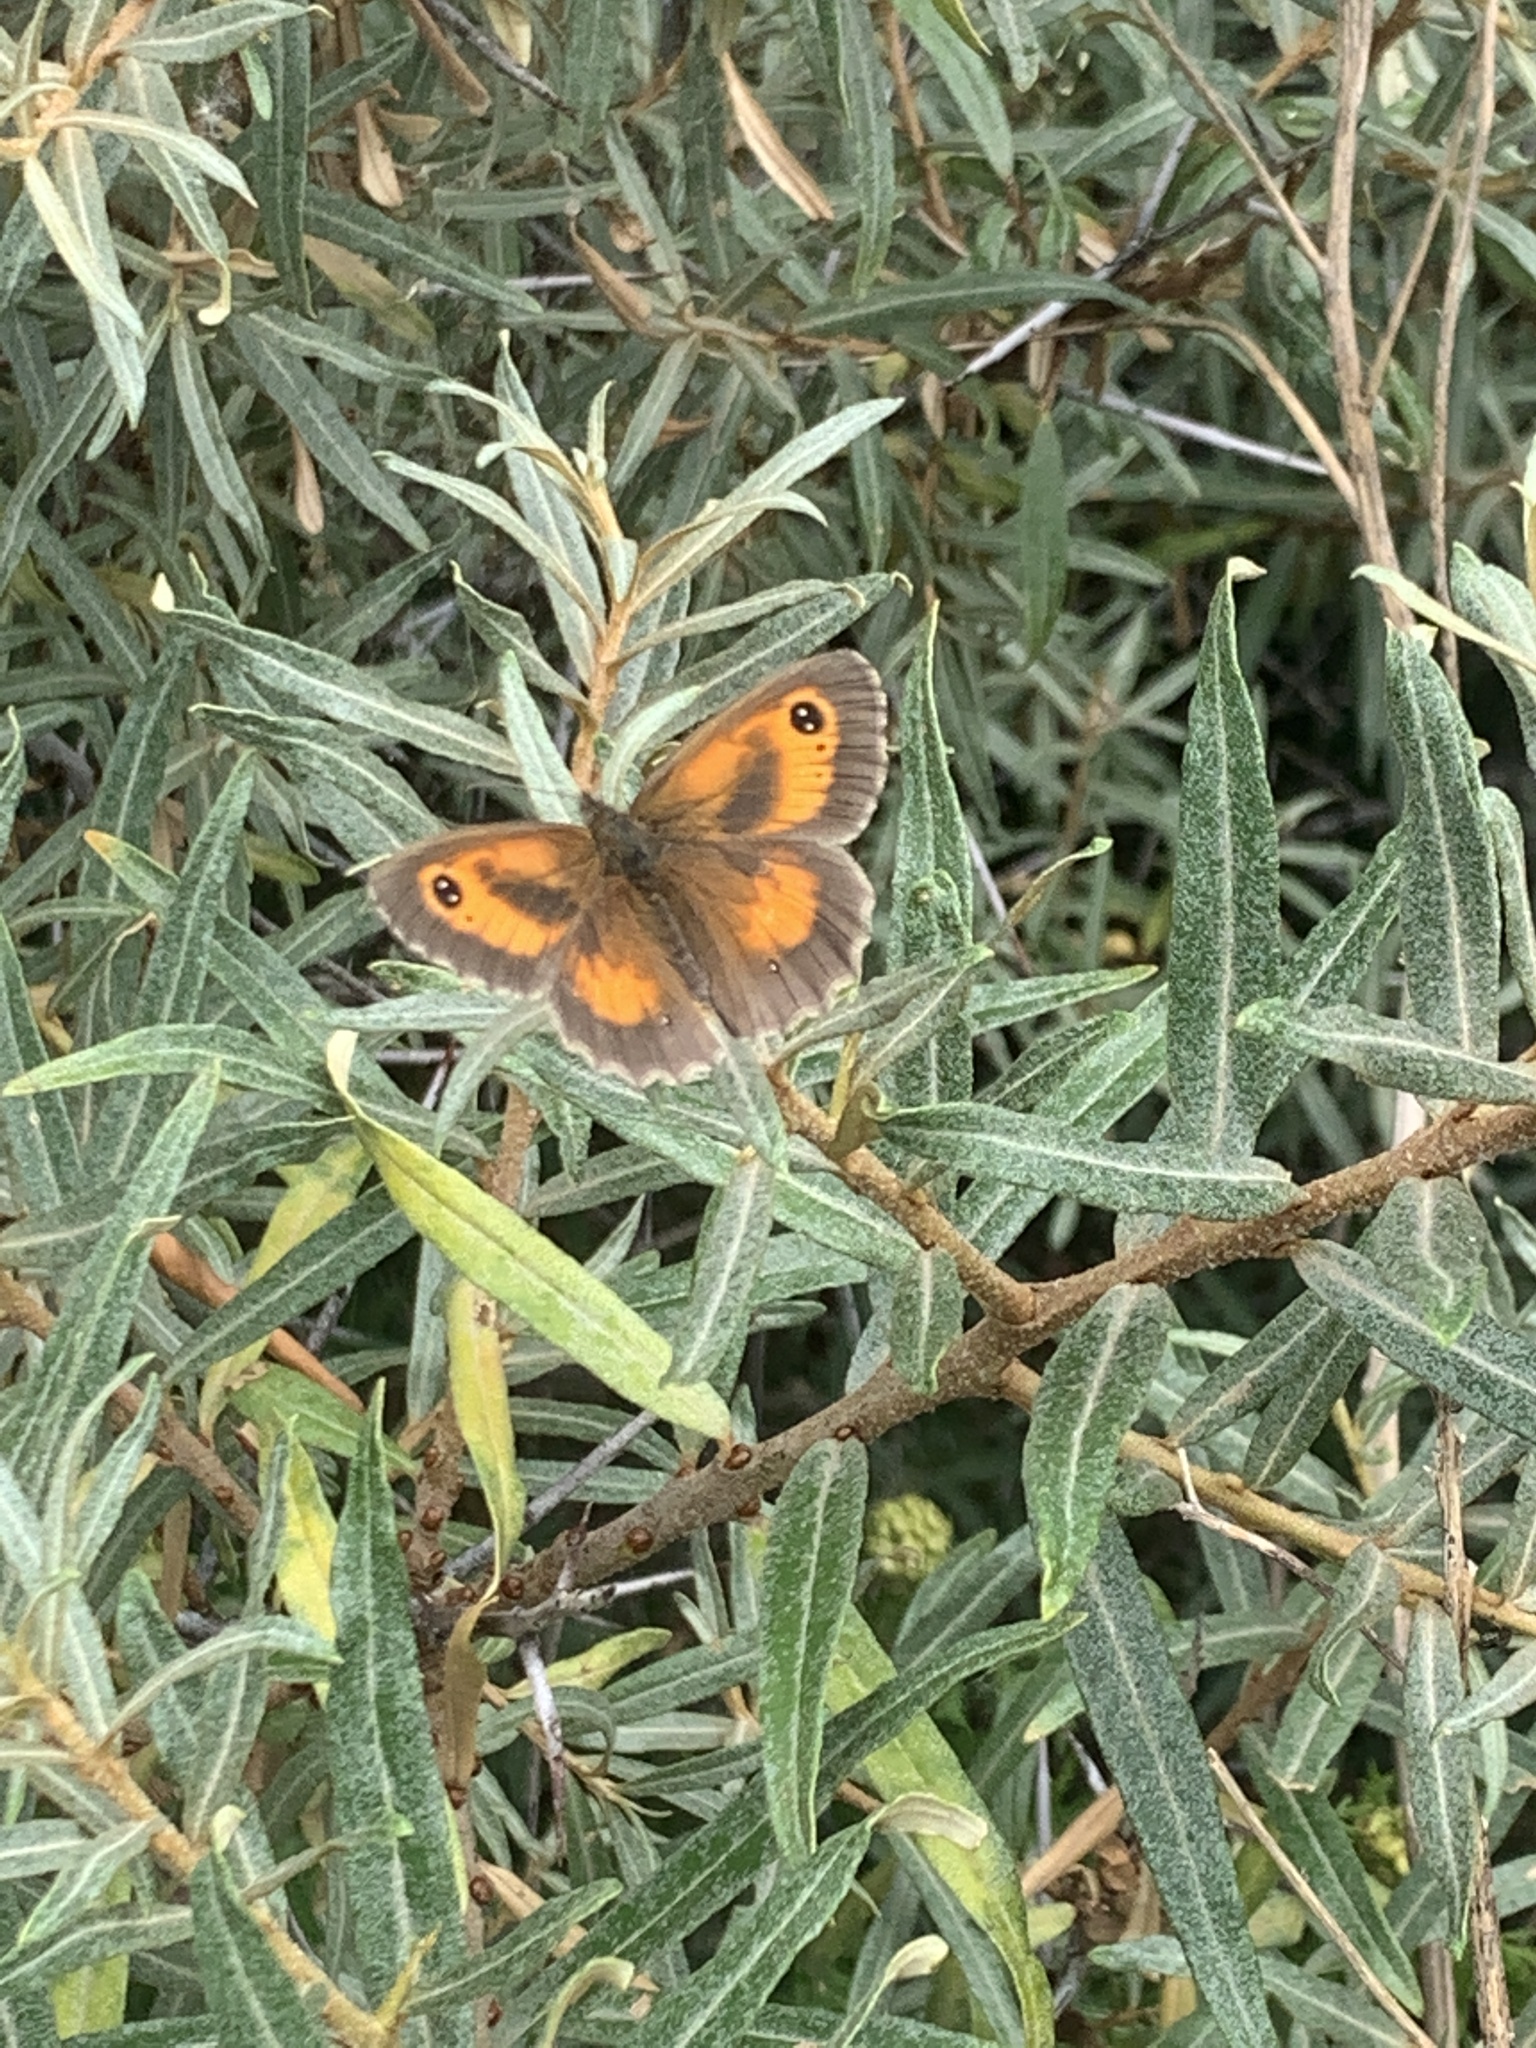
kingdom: Animalia
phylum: Arthropoda
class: Insecta
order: Lepidoptera
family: Nymphalidae
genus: Pyronia
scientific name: Pyronia tithonus
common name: Gatekeeper
